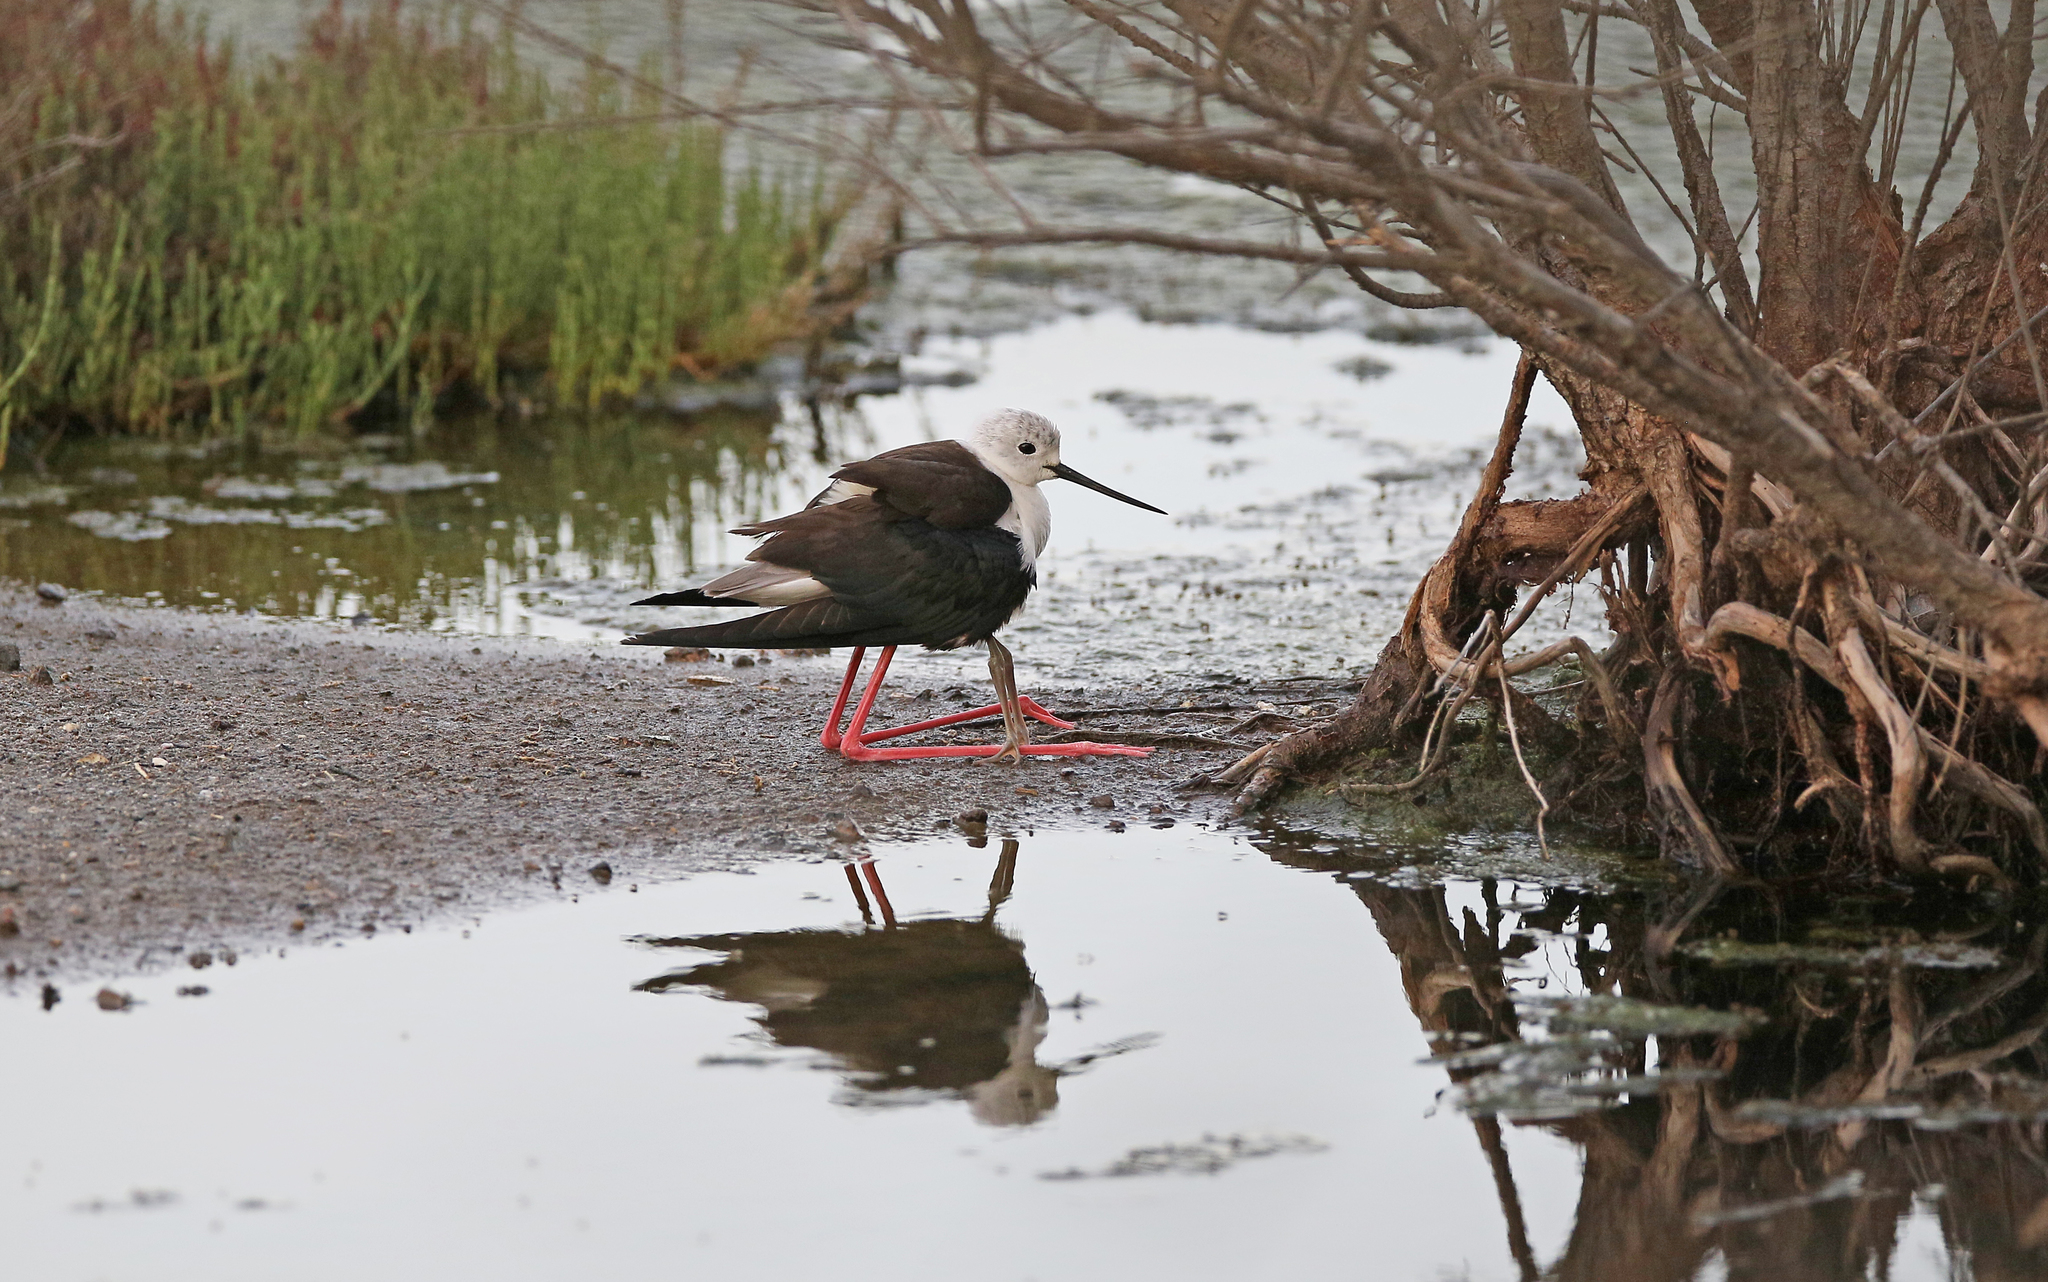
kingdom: Animalia
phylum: Chordata
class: Aves
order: Charadriiformes
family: Recurvirostridae
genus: Himantopus
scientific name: Himantopus himantopus
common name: Black-winged stilt
